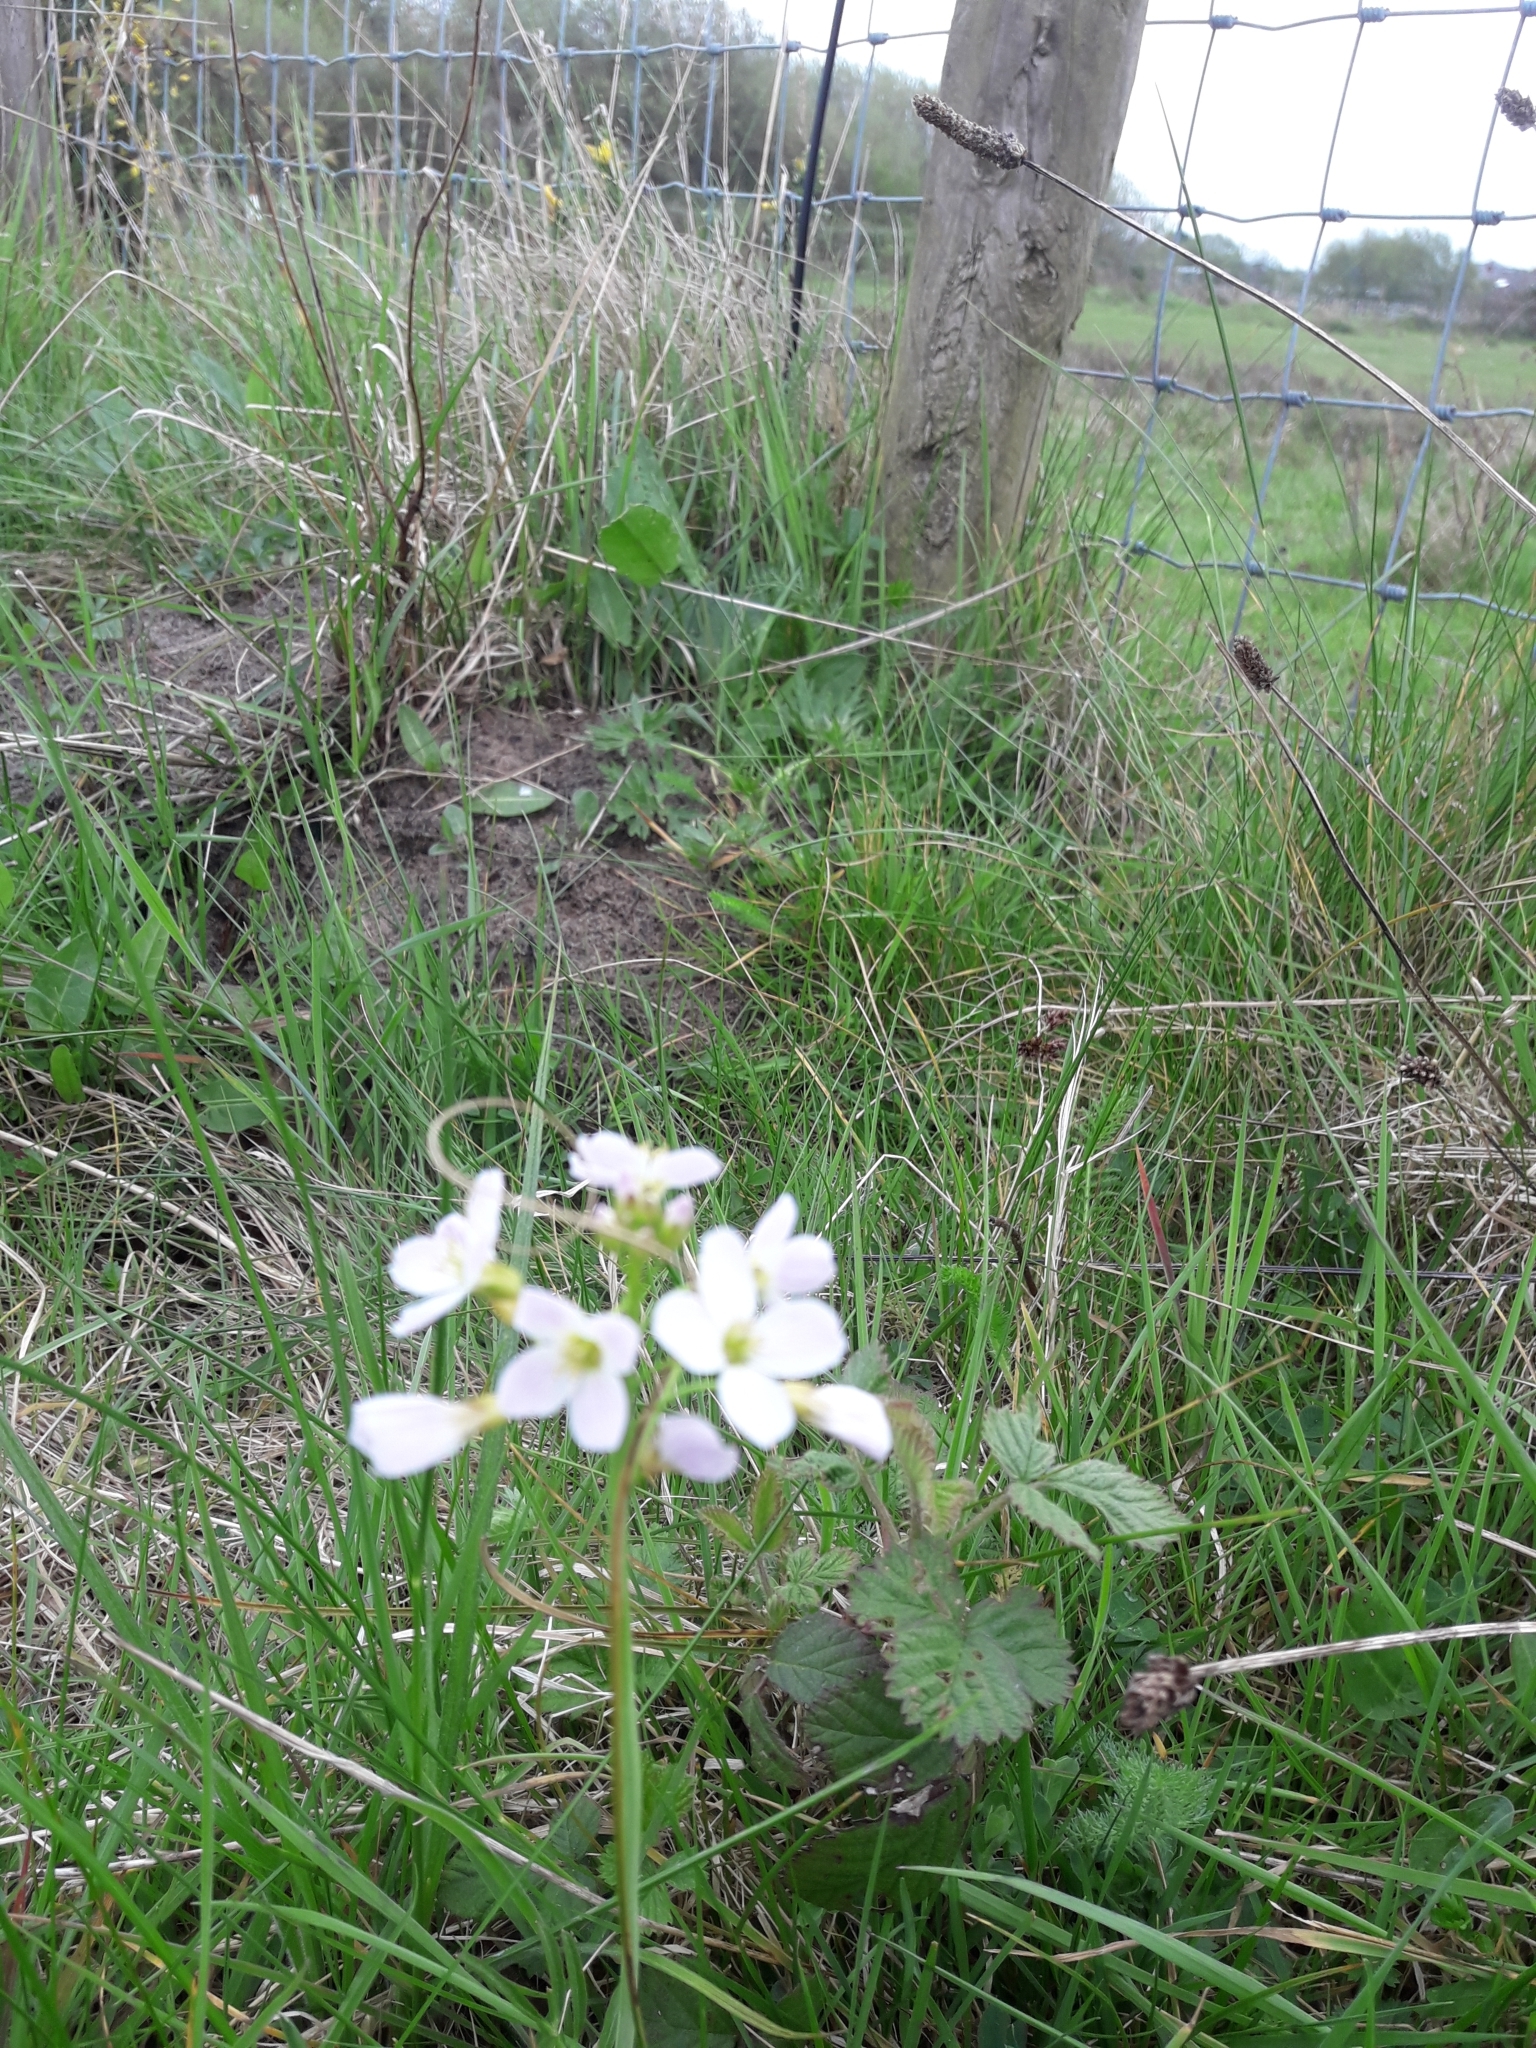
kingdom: Plantae
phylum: Tracheophyta
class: Magnoliopsida
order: Brassicales
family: Brassicaceae
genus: Cardamine
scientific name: Cardamine pratensis
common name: Cuckoo flower
